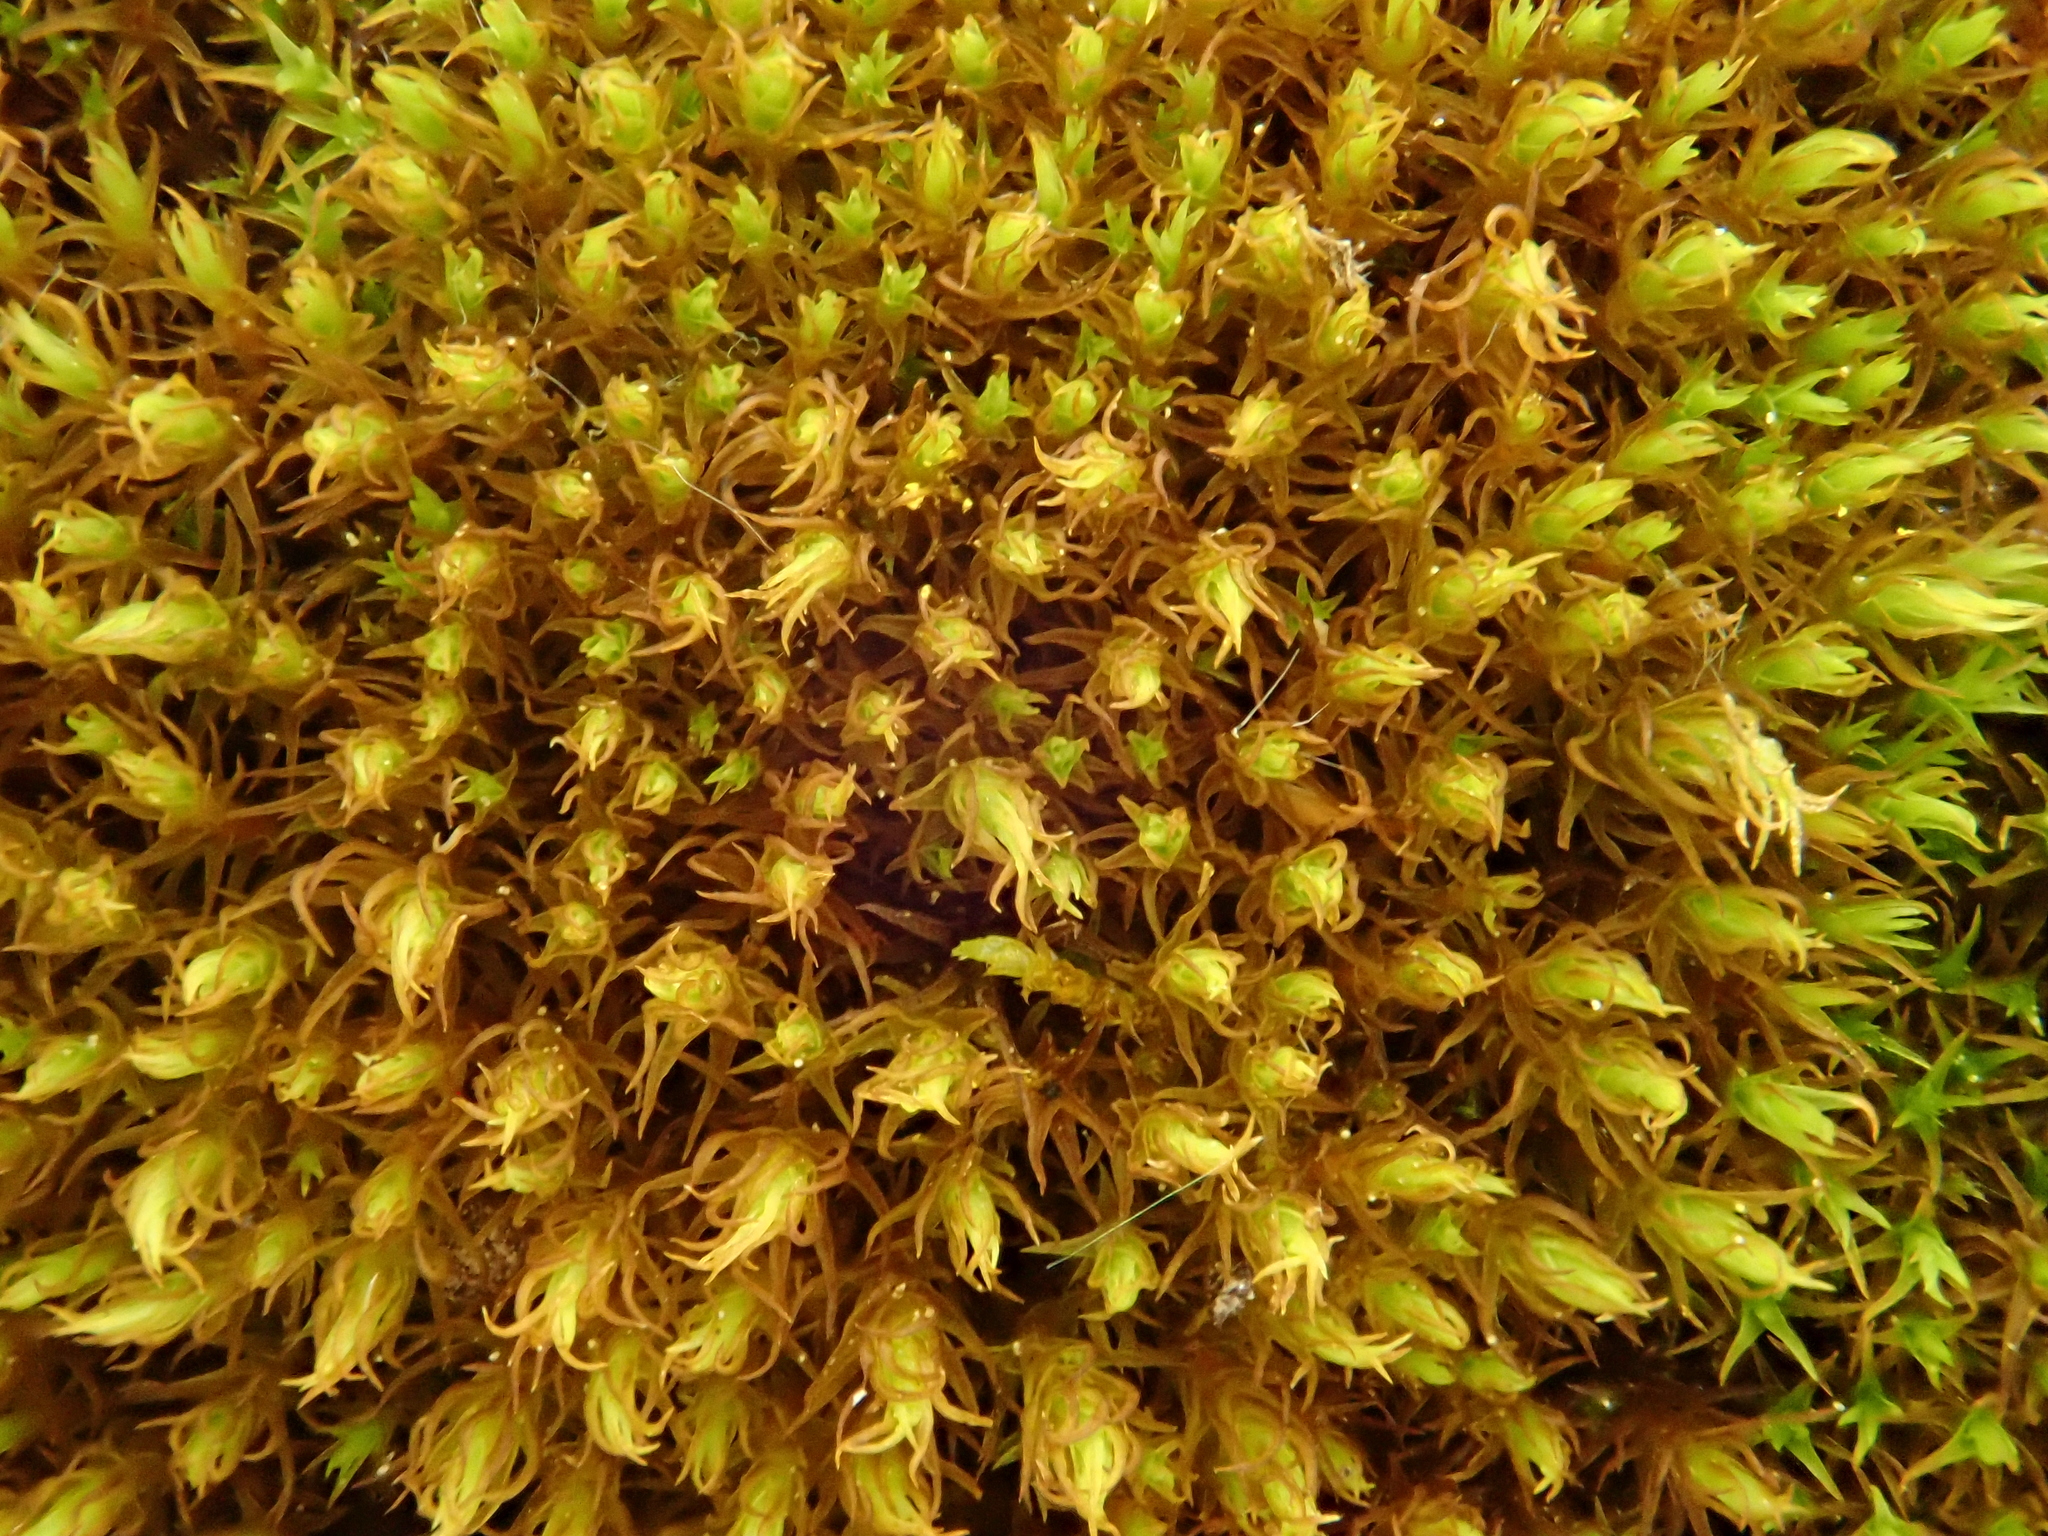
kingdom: Plantae
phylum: Bryophyta
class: Bryopsida
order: Pottiales
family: Pottiaceae
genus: Geheebia
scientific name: Geheebia fallax
